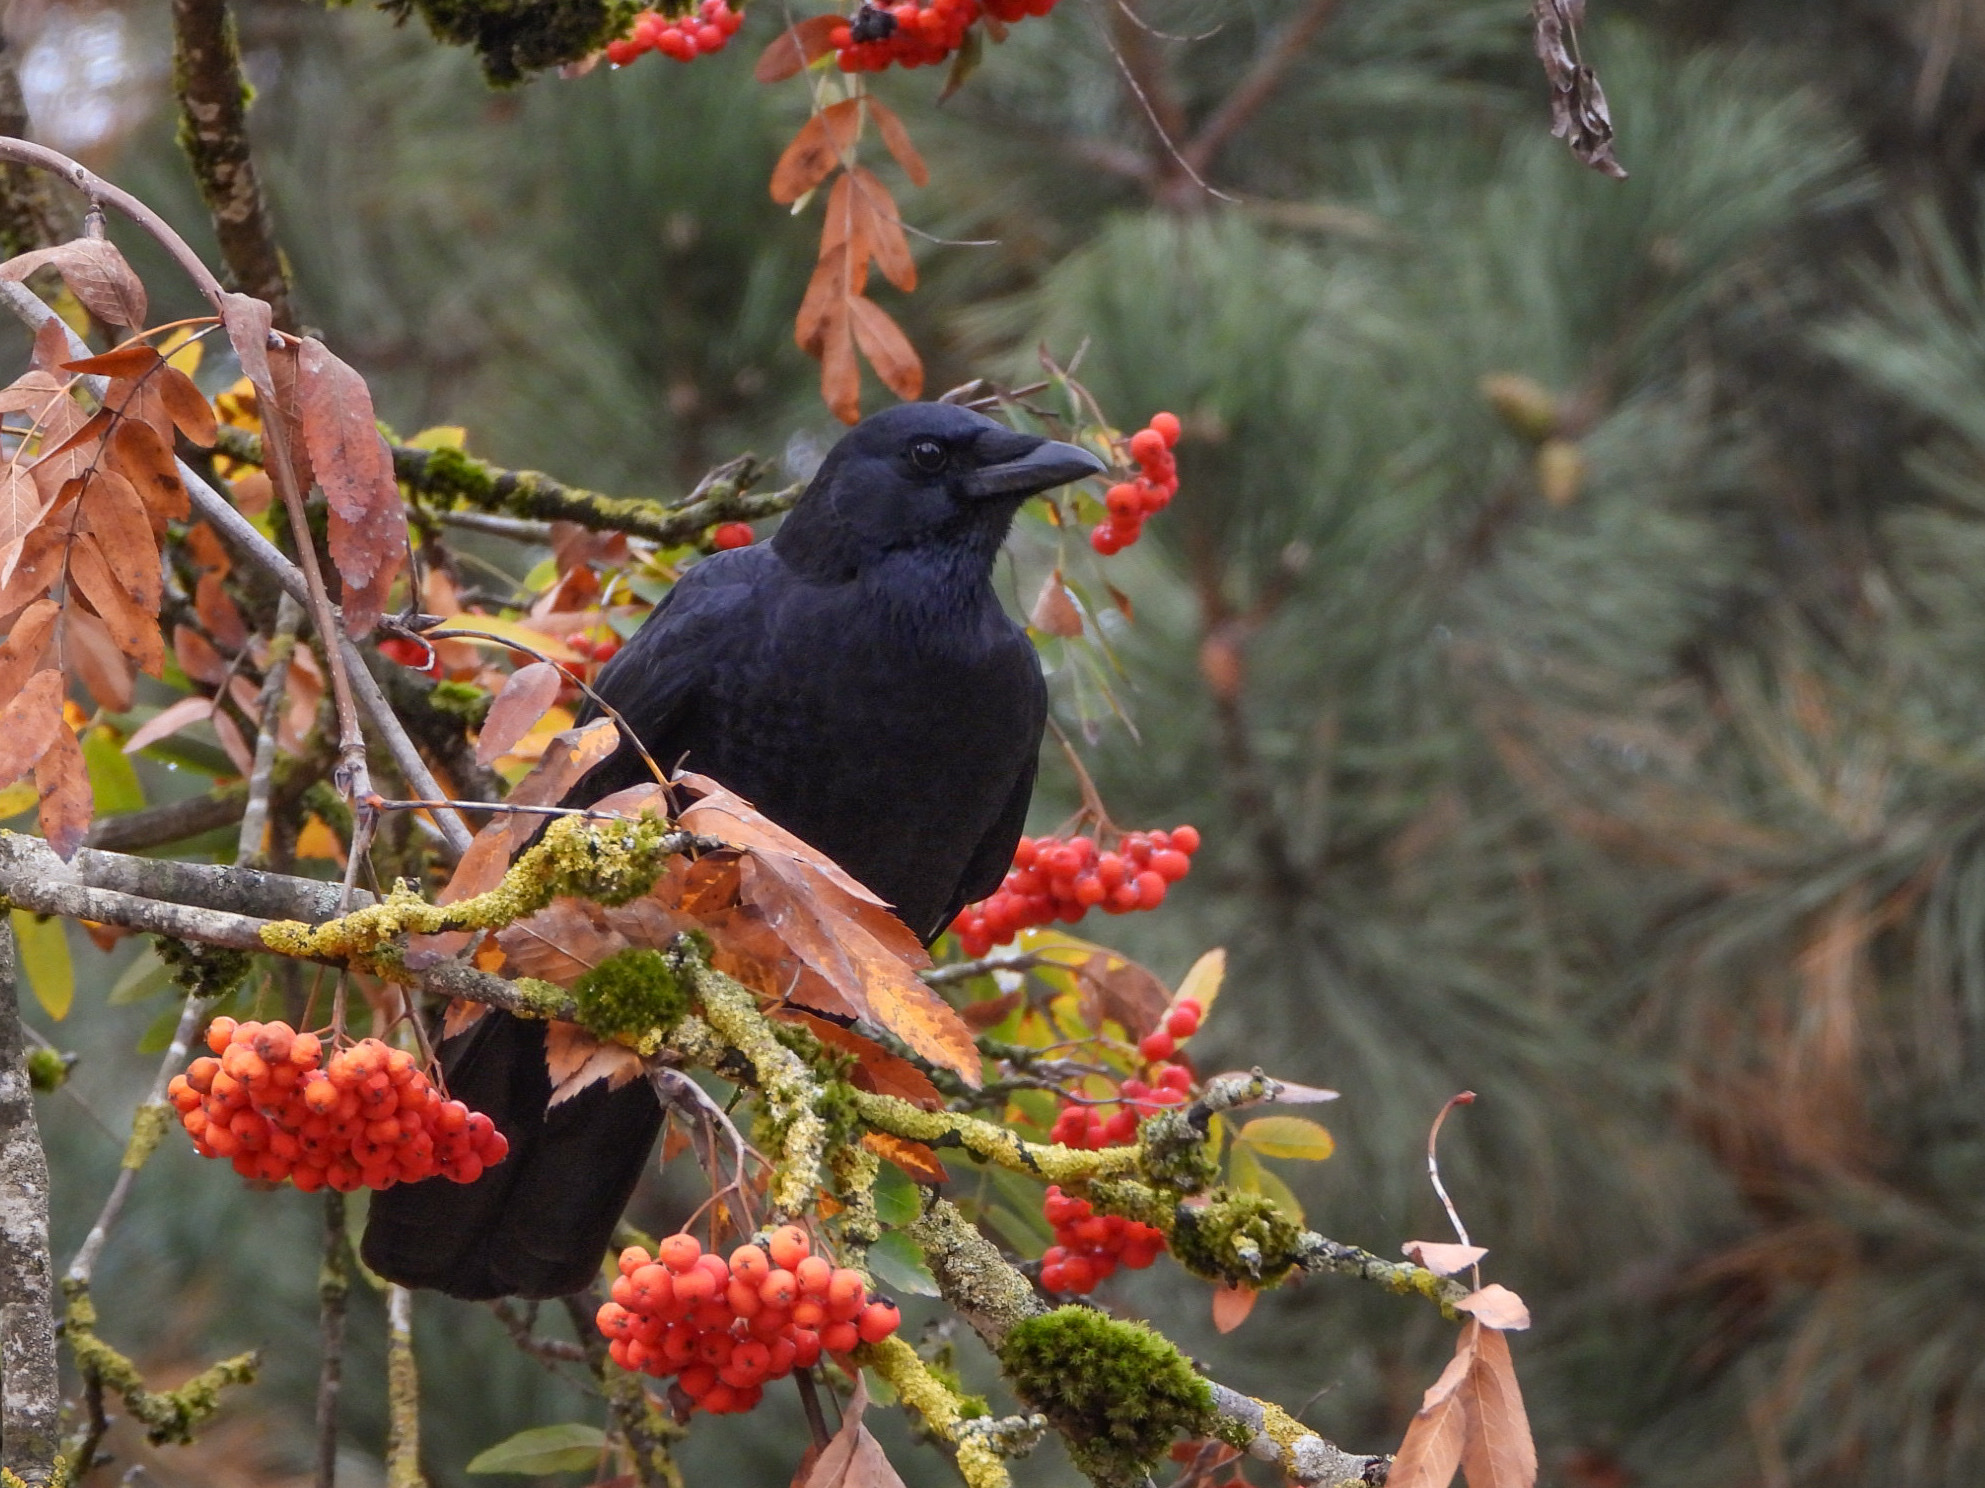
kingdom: Animalia
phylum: Chordata
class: Aves
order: Passeriformes
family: Corvidae
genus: Corvus
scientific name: Corvus brachyrhynchos
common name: American crow
